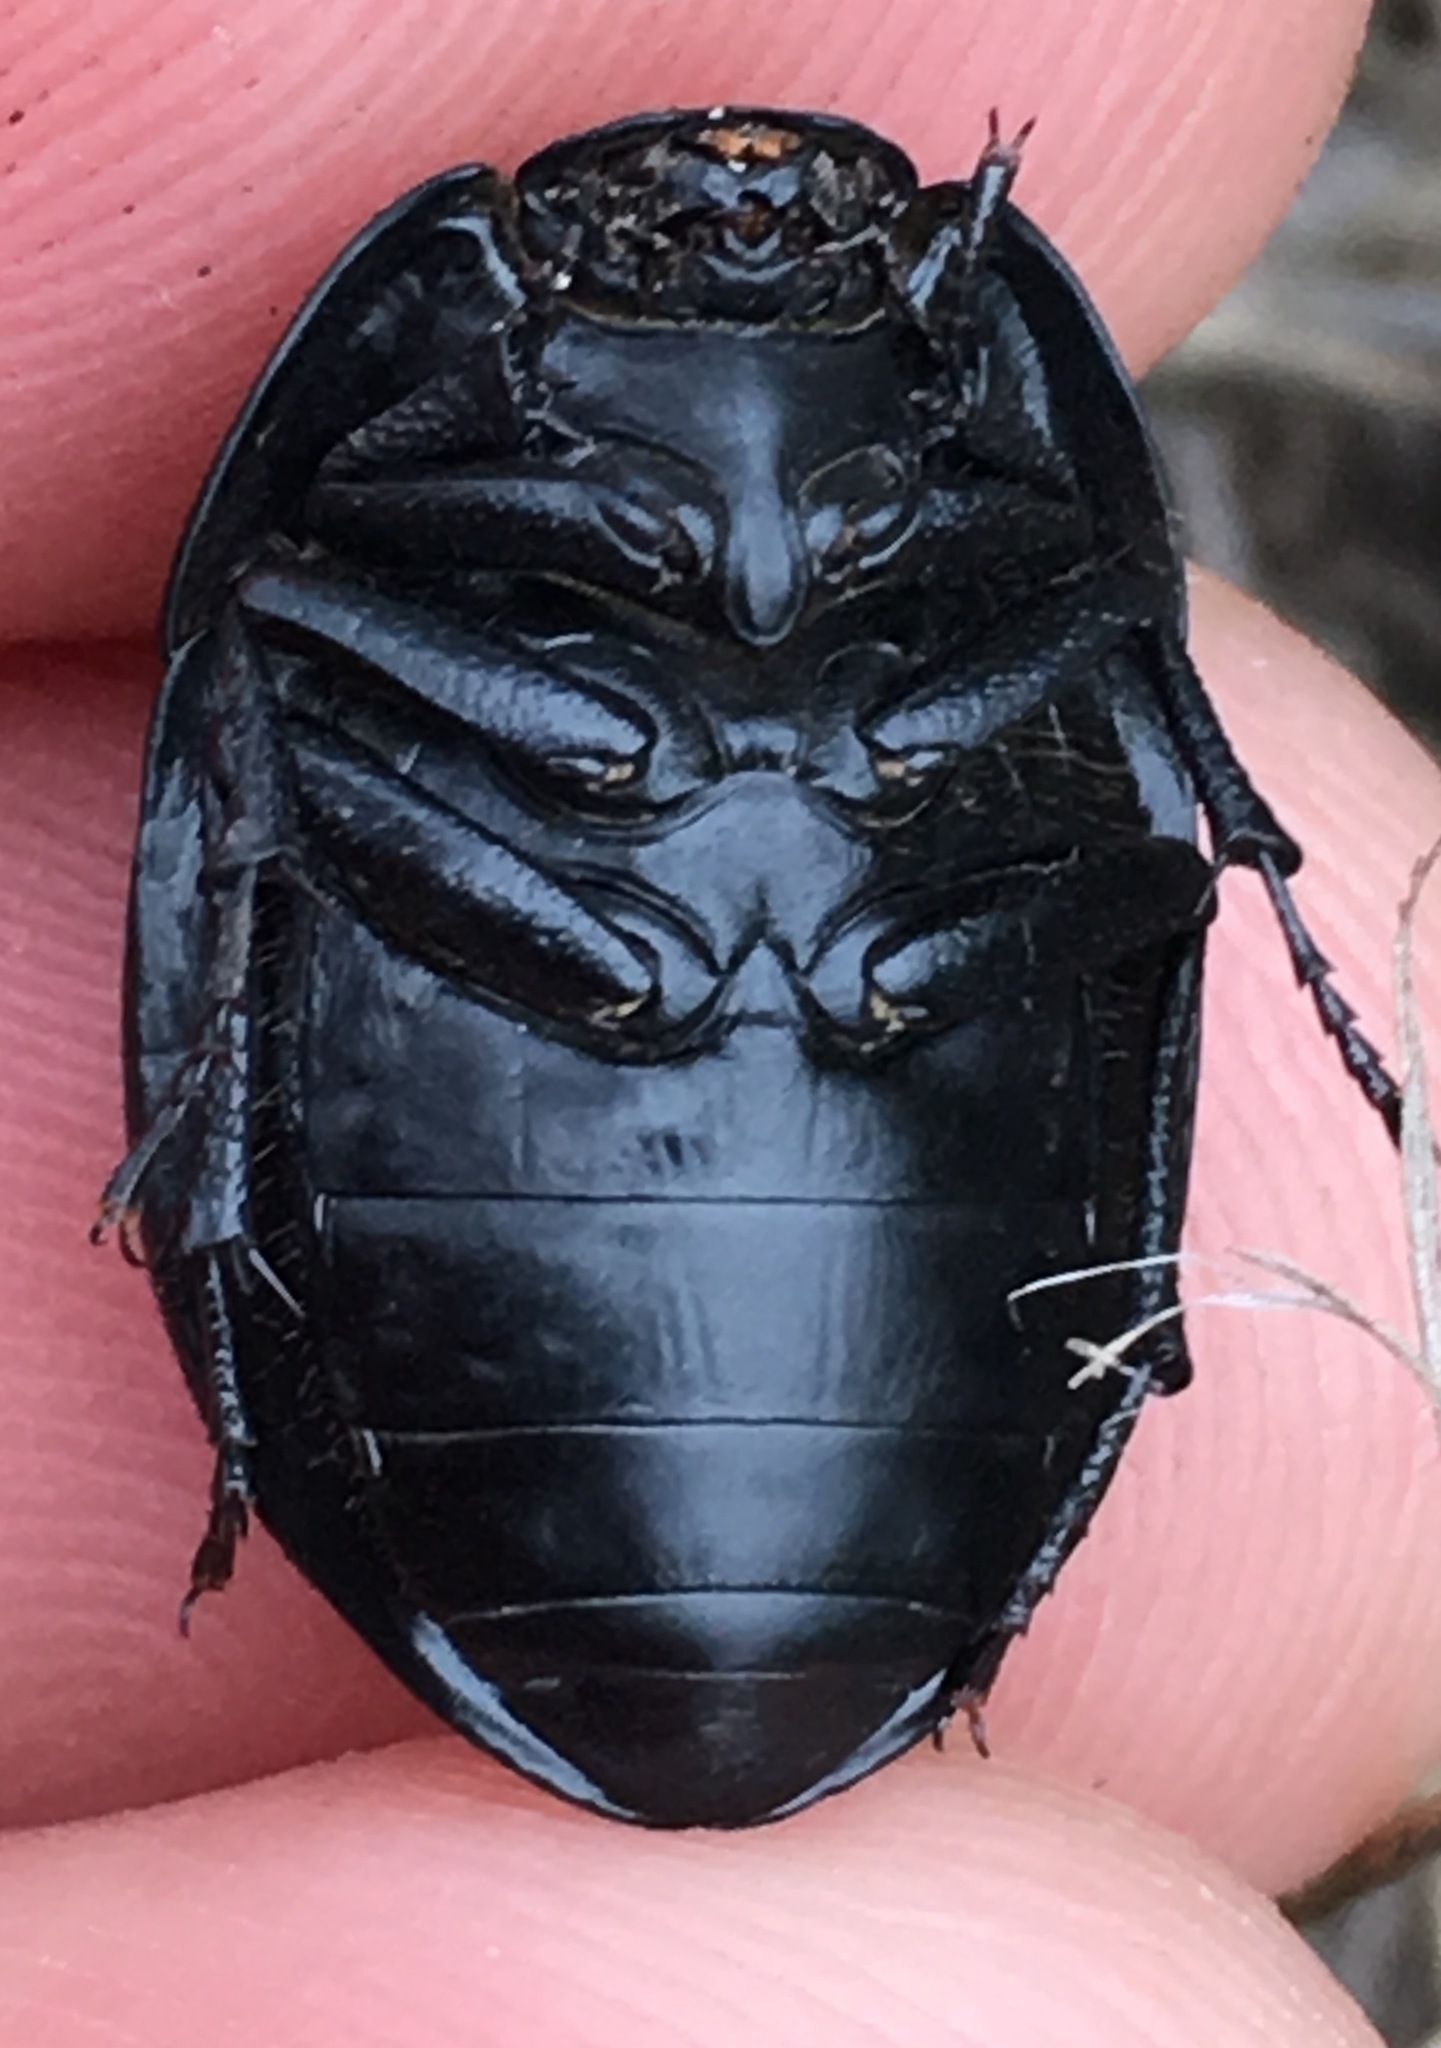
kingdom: Animalia
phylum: Arthropoda
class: Insecta
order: Coleoptera
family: Tenebrionidae
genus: Eusattus
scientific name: Eusattus robustus
